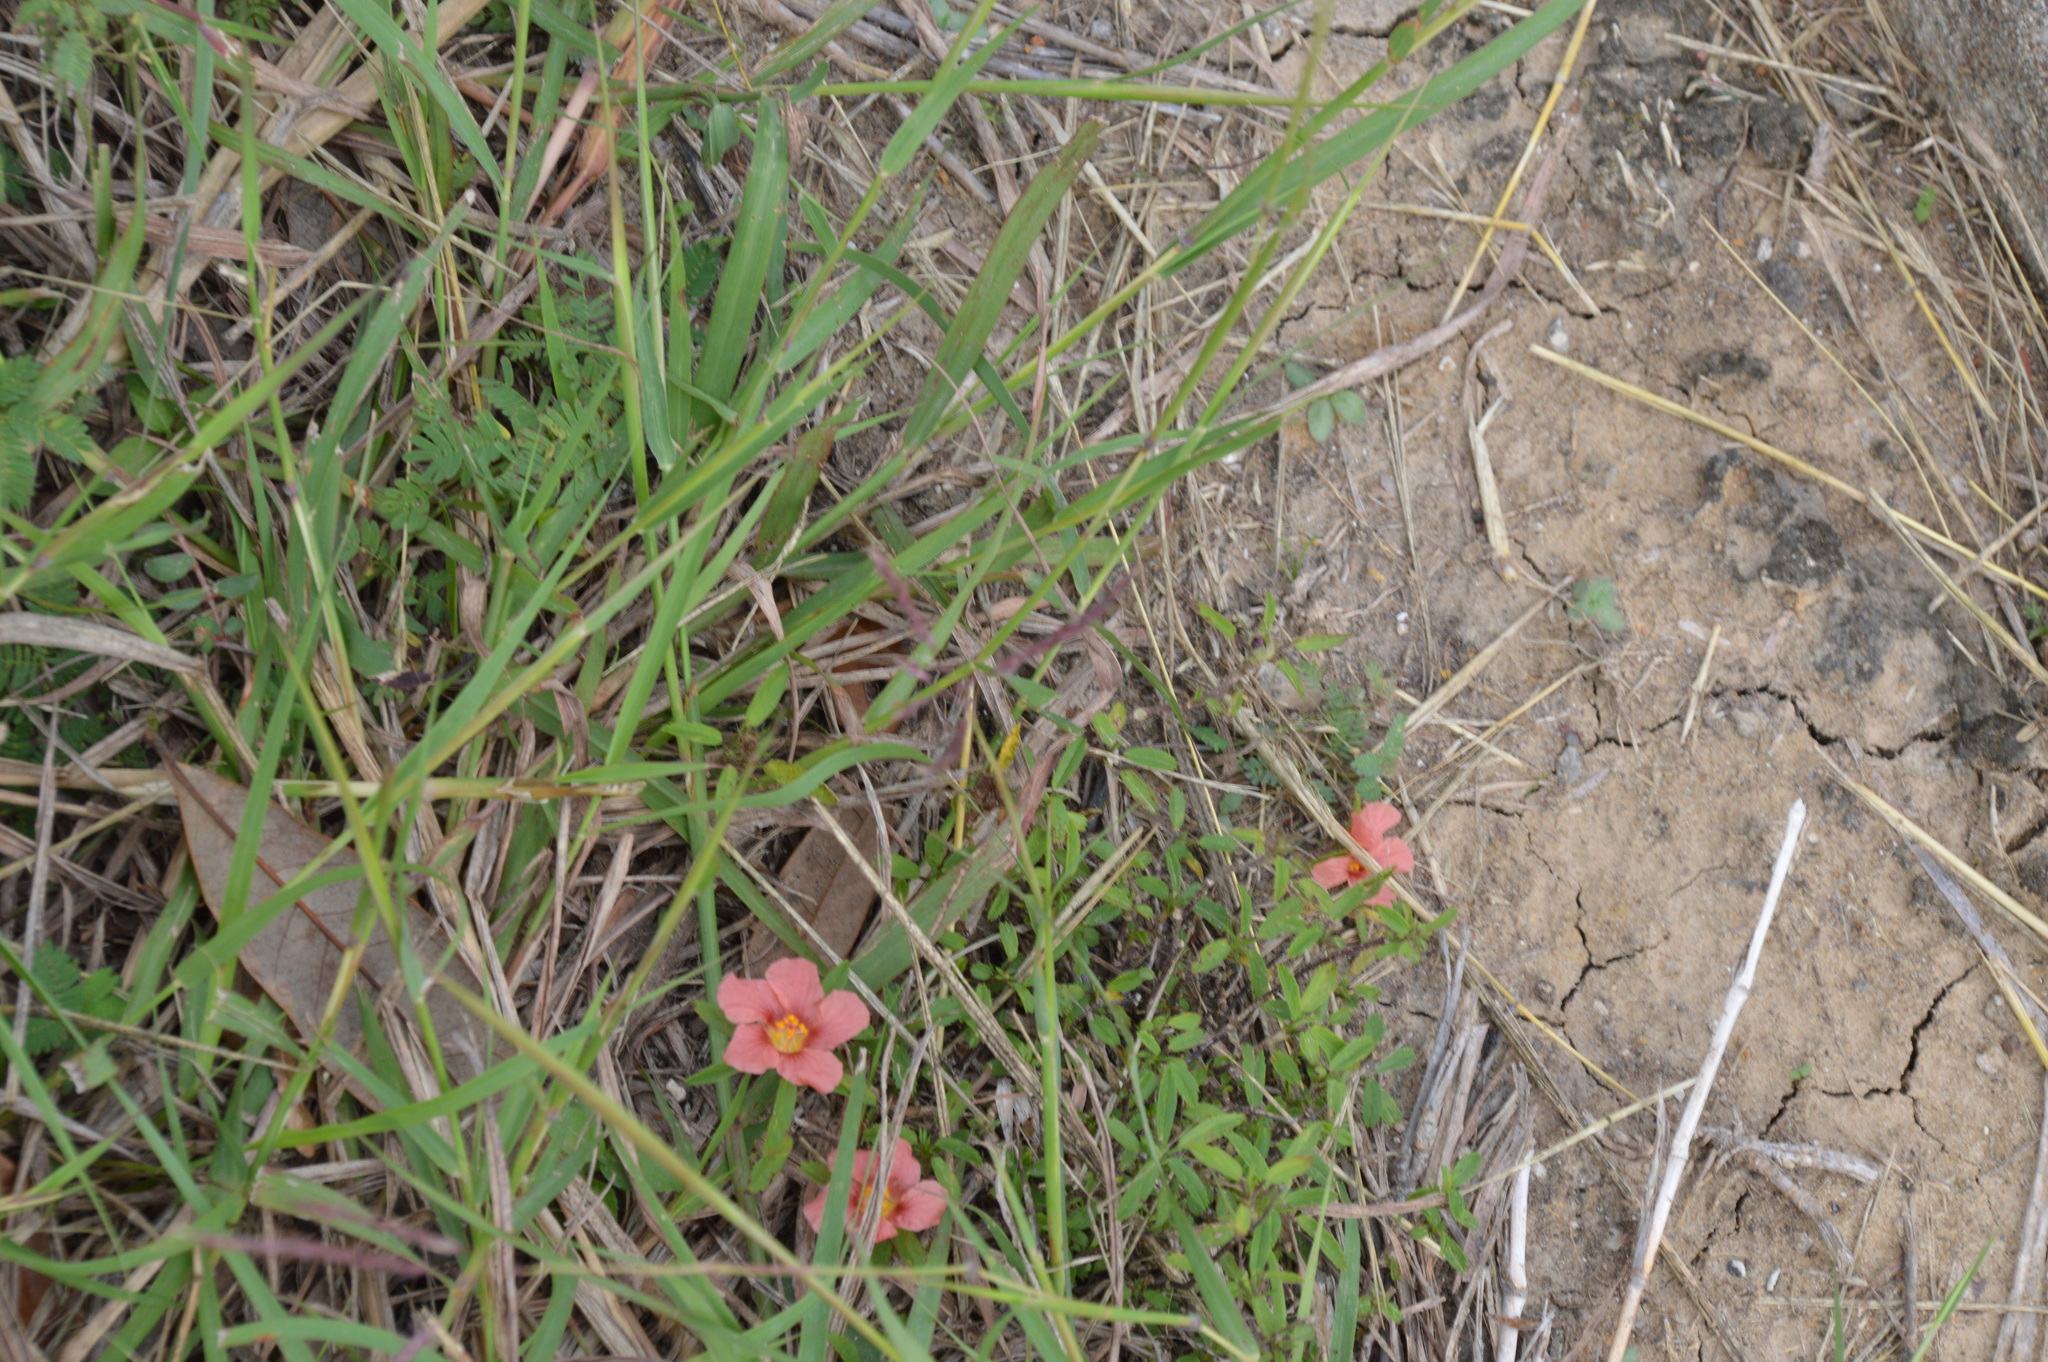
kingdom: Plantae
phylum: Tracheophyta
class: Magnoliopsida
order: Malvales
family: Malvaceae
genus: Sida
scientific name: Sida ciliaris
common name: Bracted fanpetals
